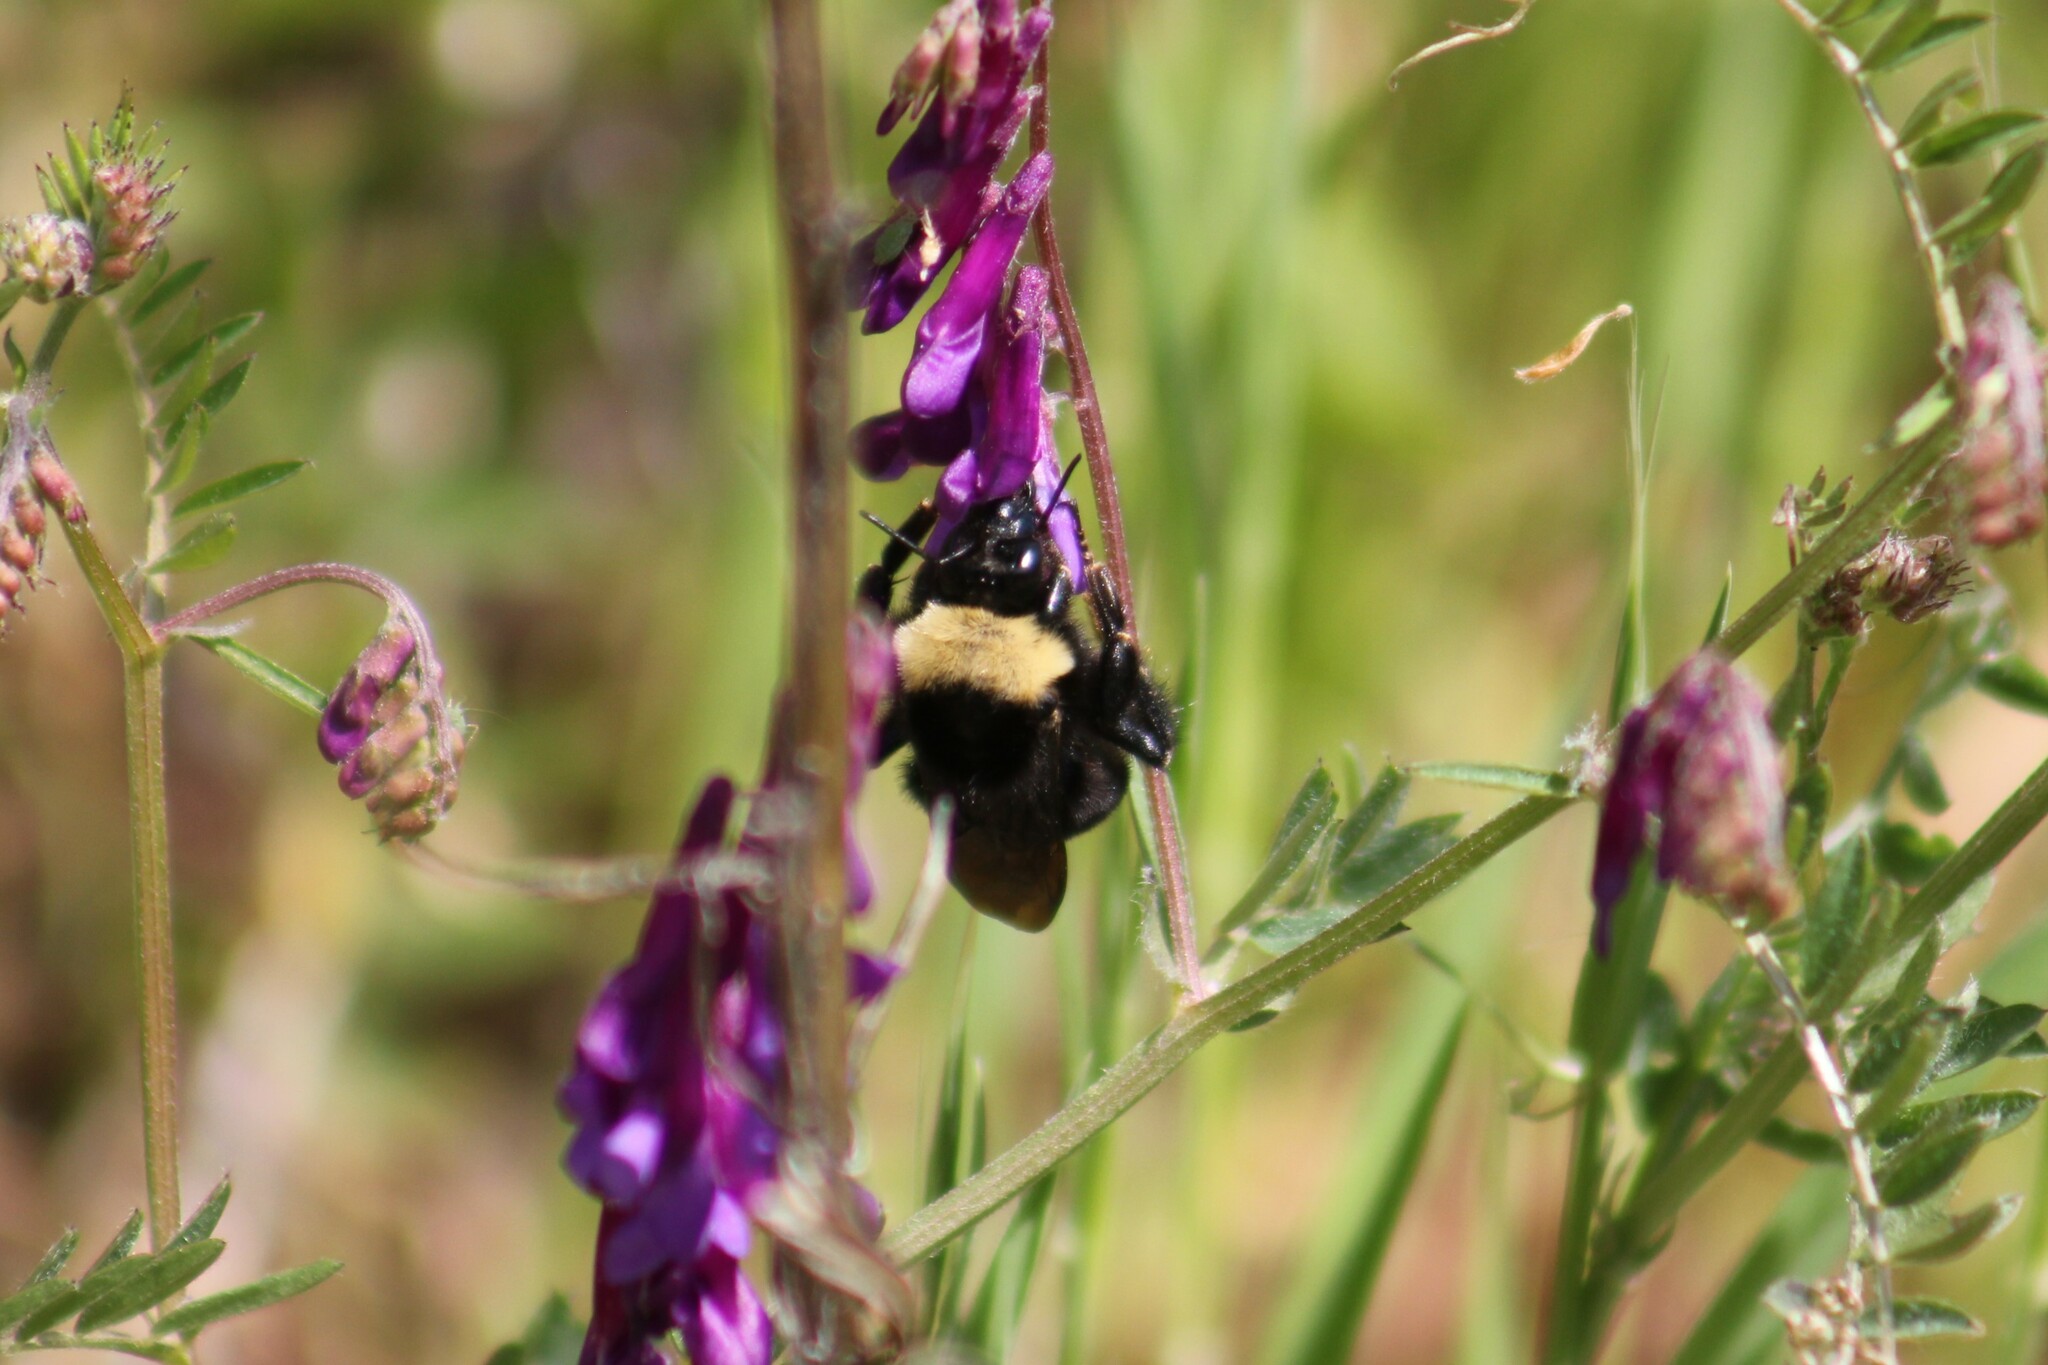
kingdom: Animalia
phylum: Arthropoda
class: Insecta
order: Hymenoptera
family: Apidae
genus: Bombus
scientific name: Bombus californicus
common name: California bumble bee
